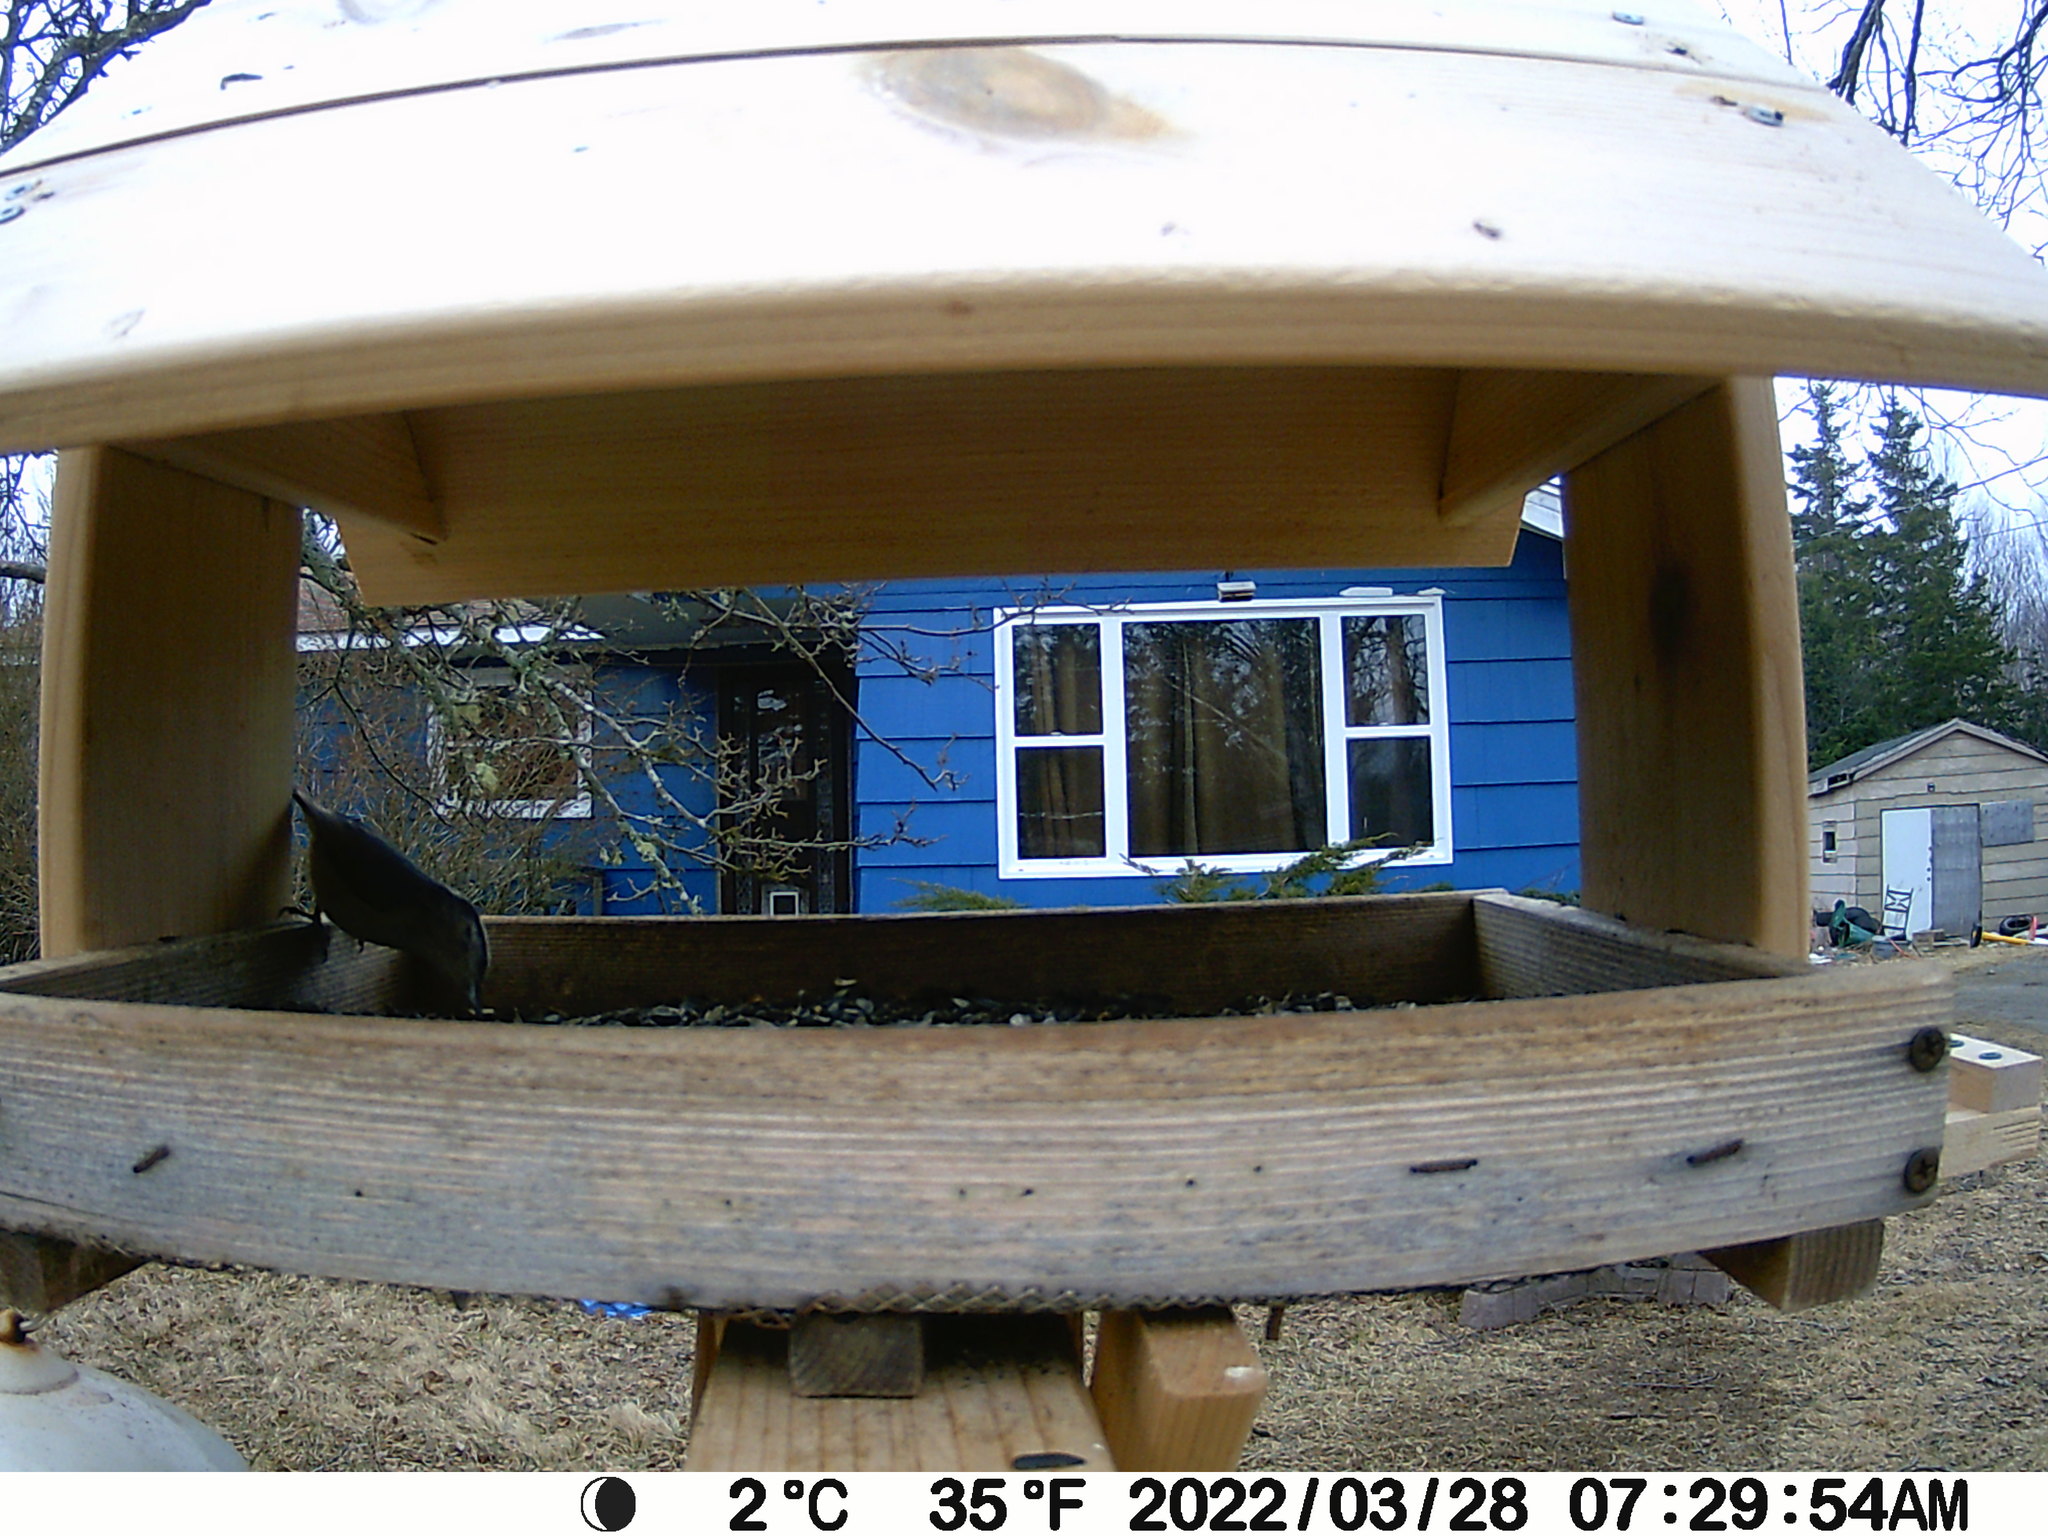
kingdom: Animalia
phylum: Chordata
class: Aves
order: Passeriformes
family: Sittidae
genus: Sitta
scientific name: Sitta canadensis
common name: Red-breasted nuthatch
